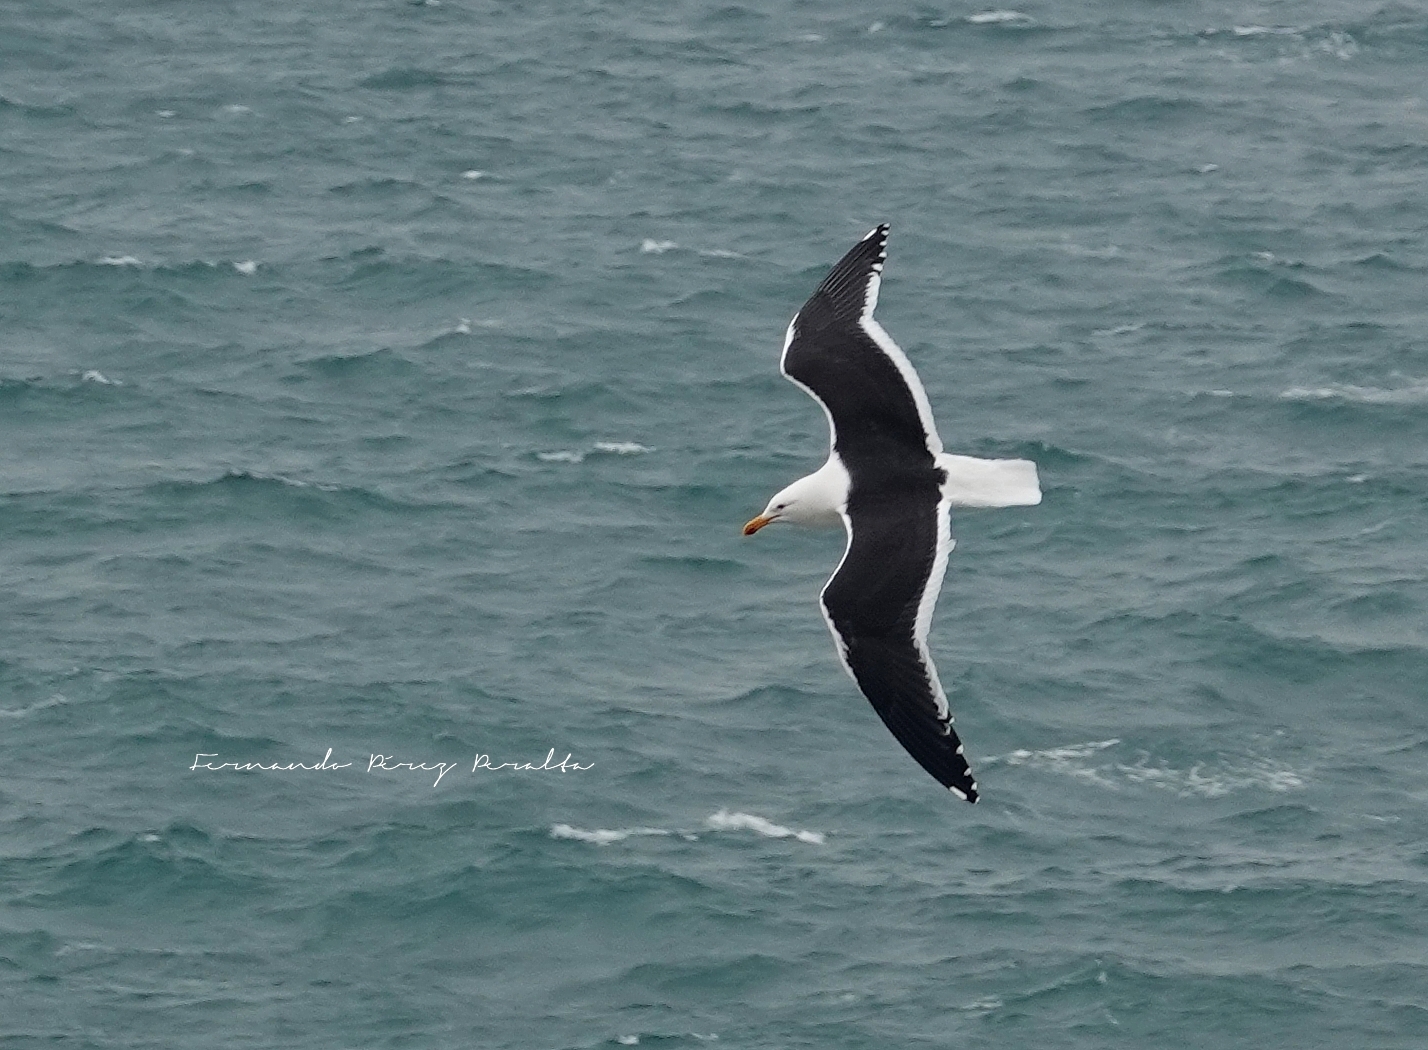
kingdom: Animalia
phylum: Chordata
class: Aves
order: Charadriiformes
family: Laridae
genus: Larus
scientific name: Larus dominicanus
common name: Kelp gull
